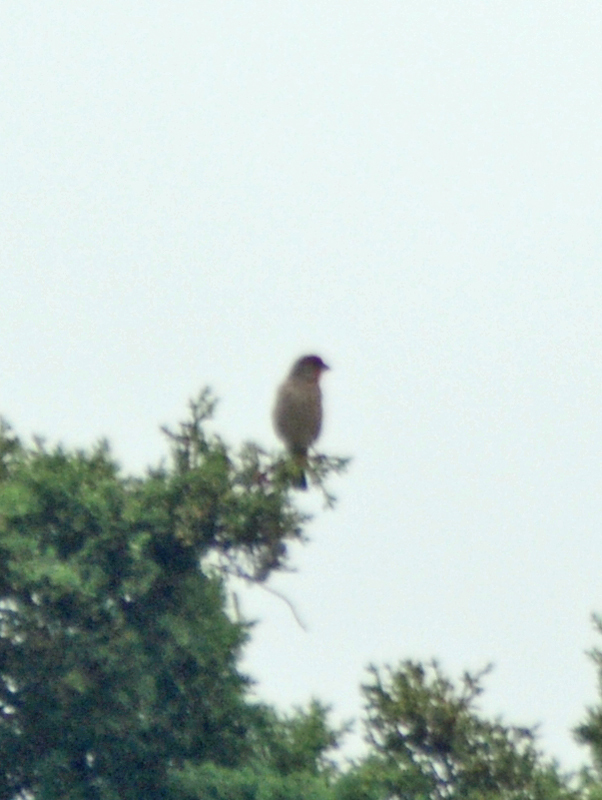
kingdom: Animalia
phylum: Chordata
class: Aves
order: Passeriformes
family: Fringillidae
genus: Haemorhous
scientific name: Haemorhous mexicanus
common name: House finch
